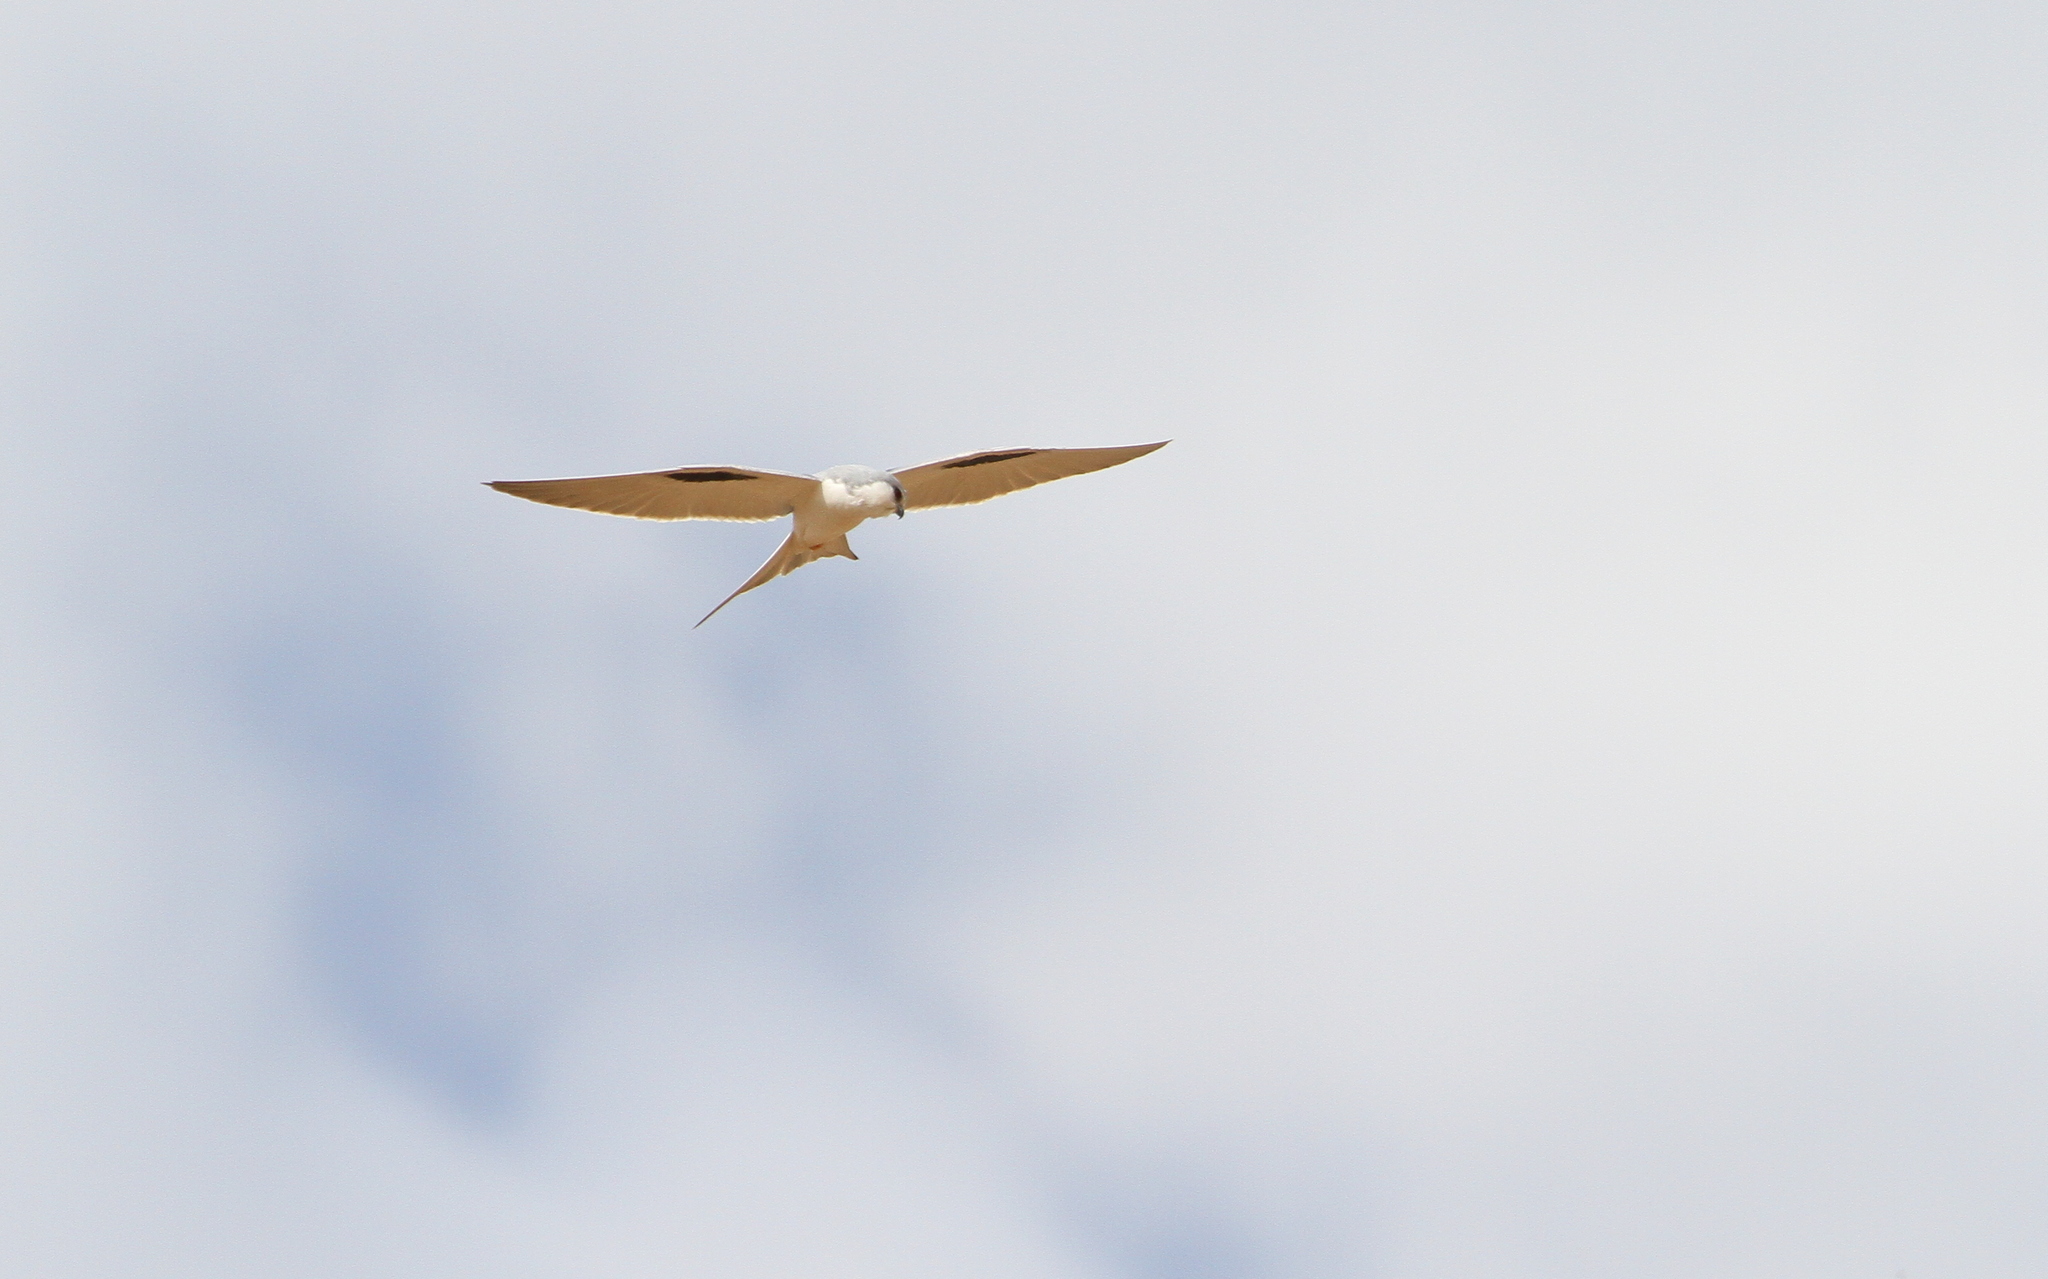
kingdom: Animalia
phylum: Chordata
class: Aves
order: Accipitriformes
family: Accipitridae
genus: Chelictinia
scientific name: Chelictinia riocourii
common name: Scissor-tailed kite
